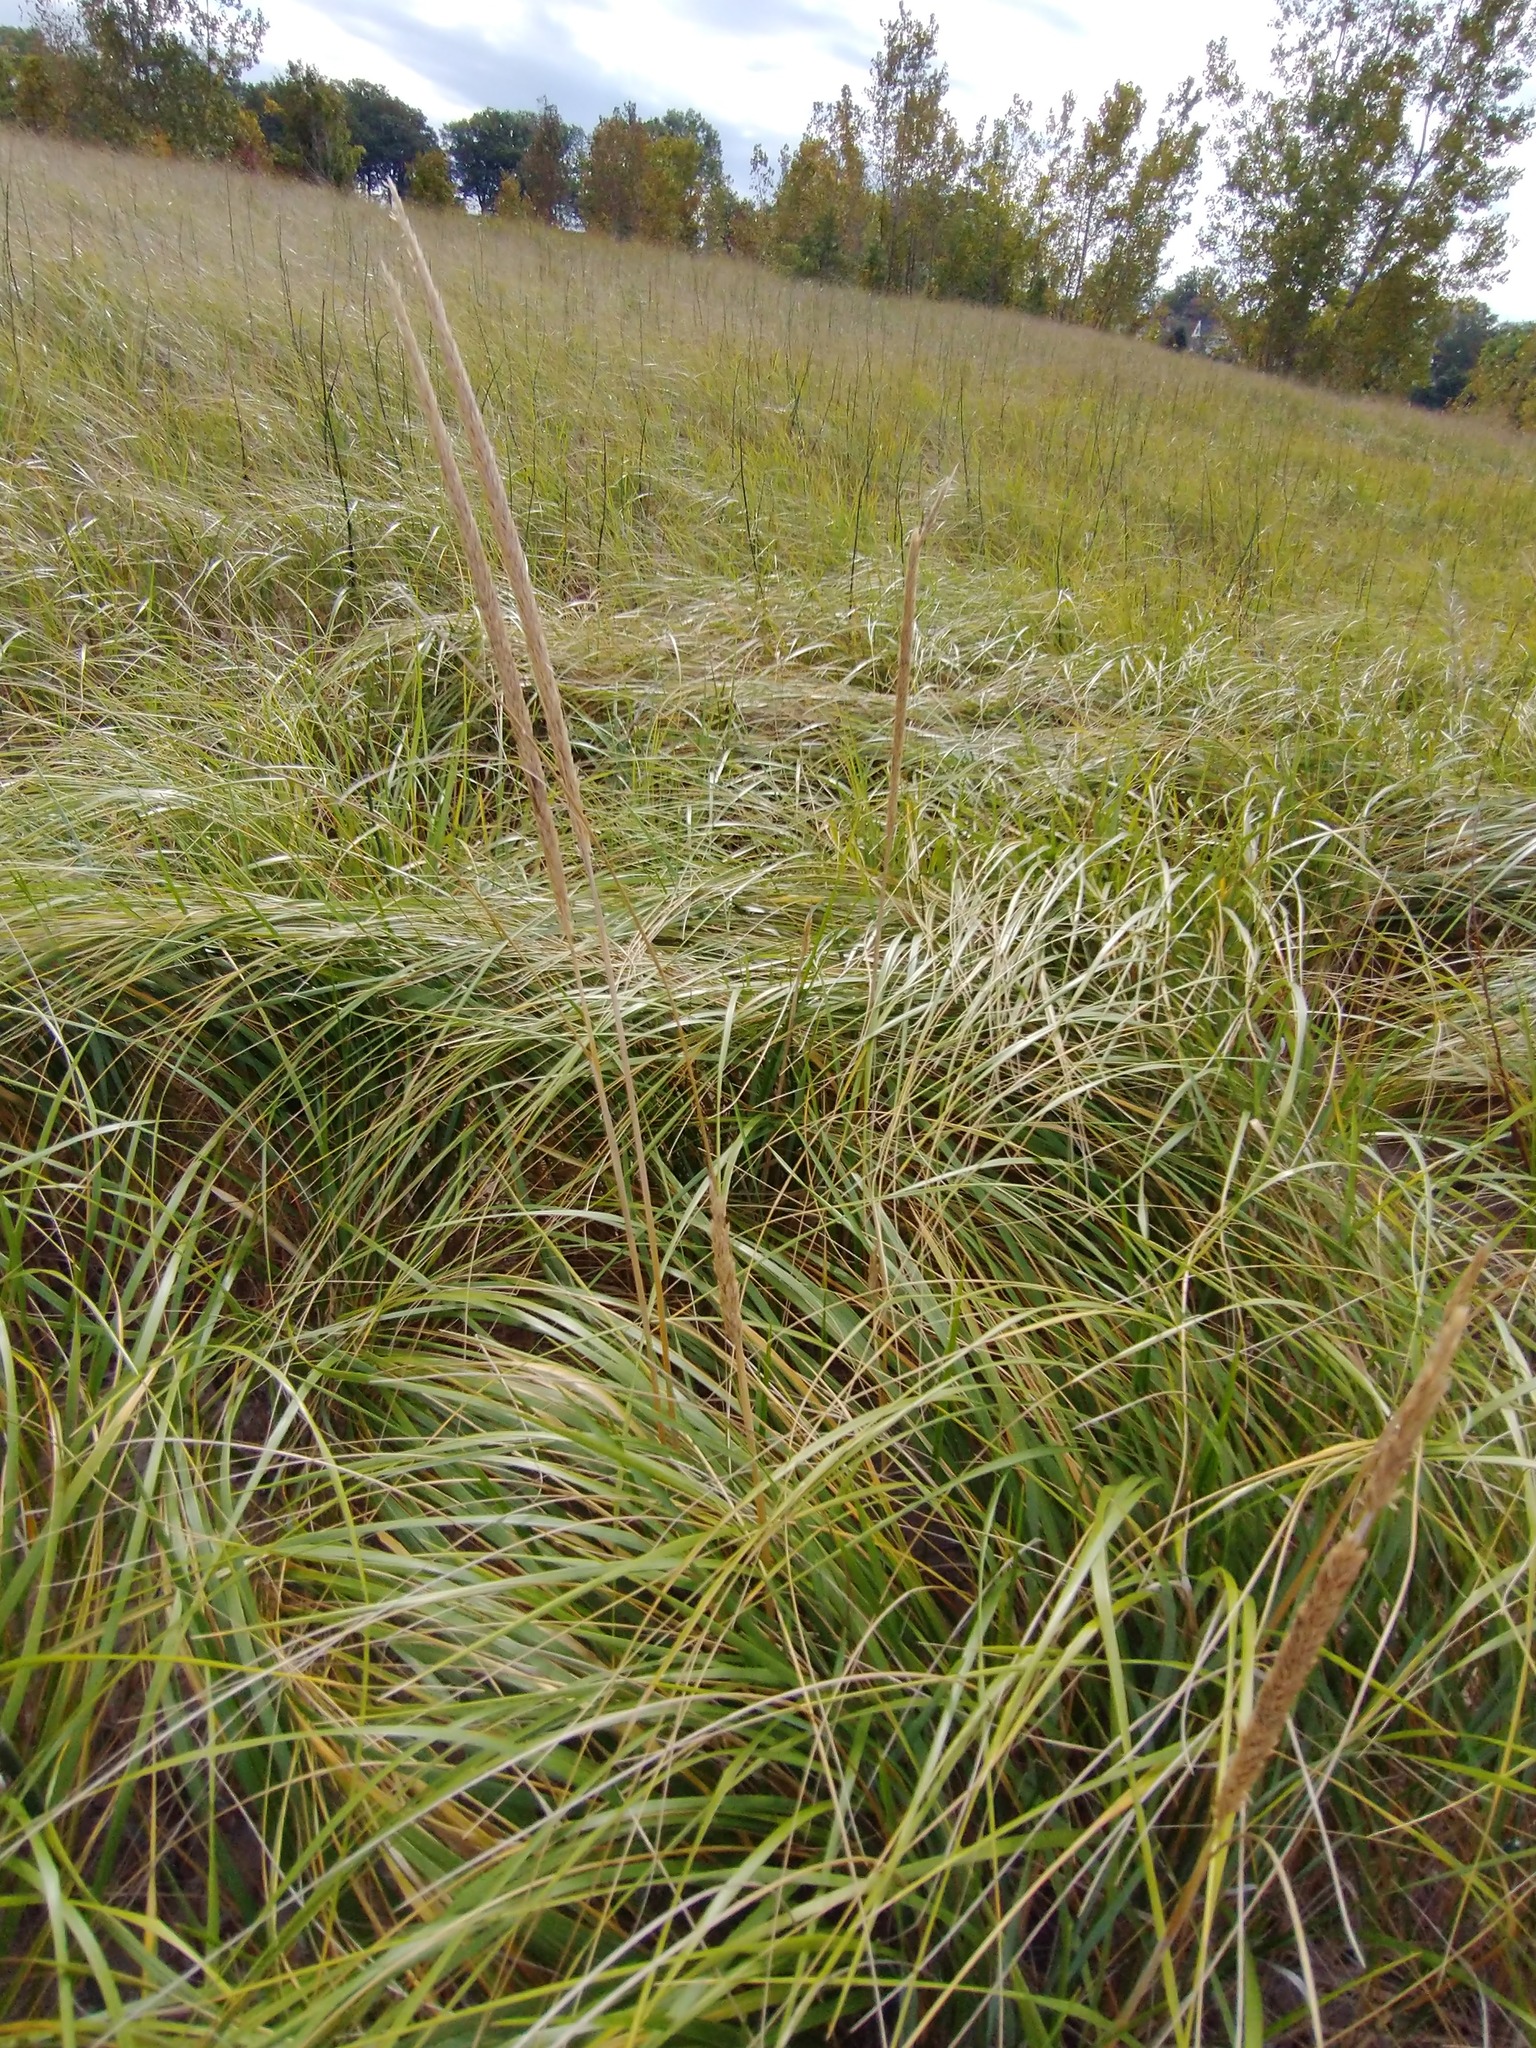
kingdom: Plantae
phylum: Tracheophyta
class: Liliopsida
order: Poales
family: Poaceae
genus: Calamagrostis
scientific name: Calamagrostis breviligulata
